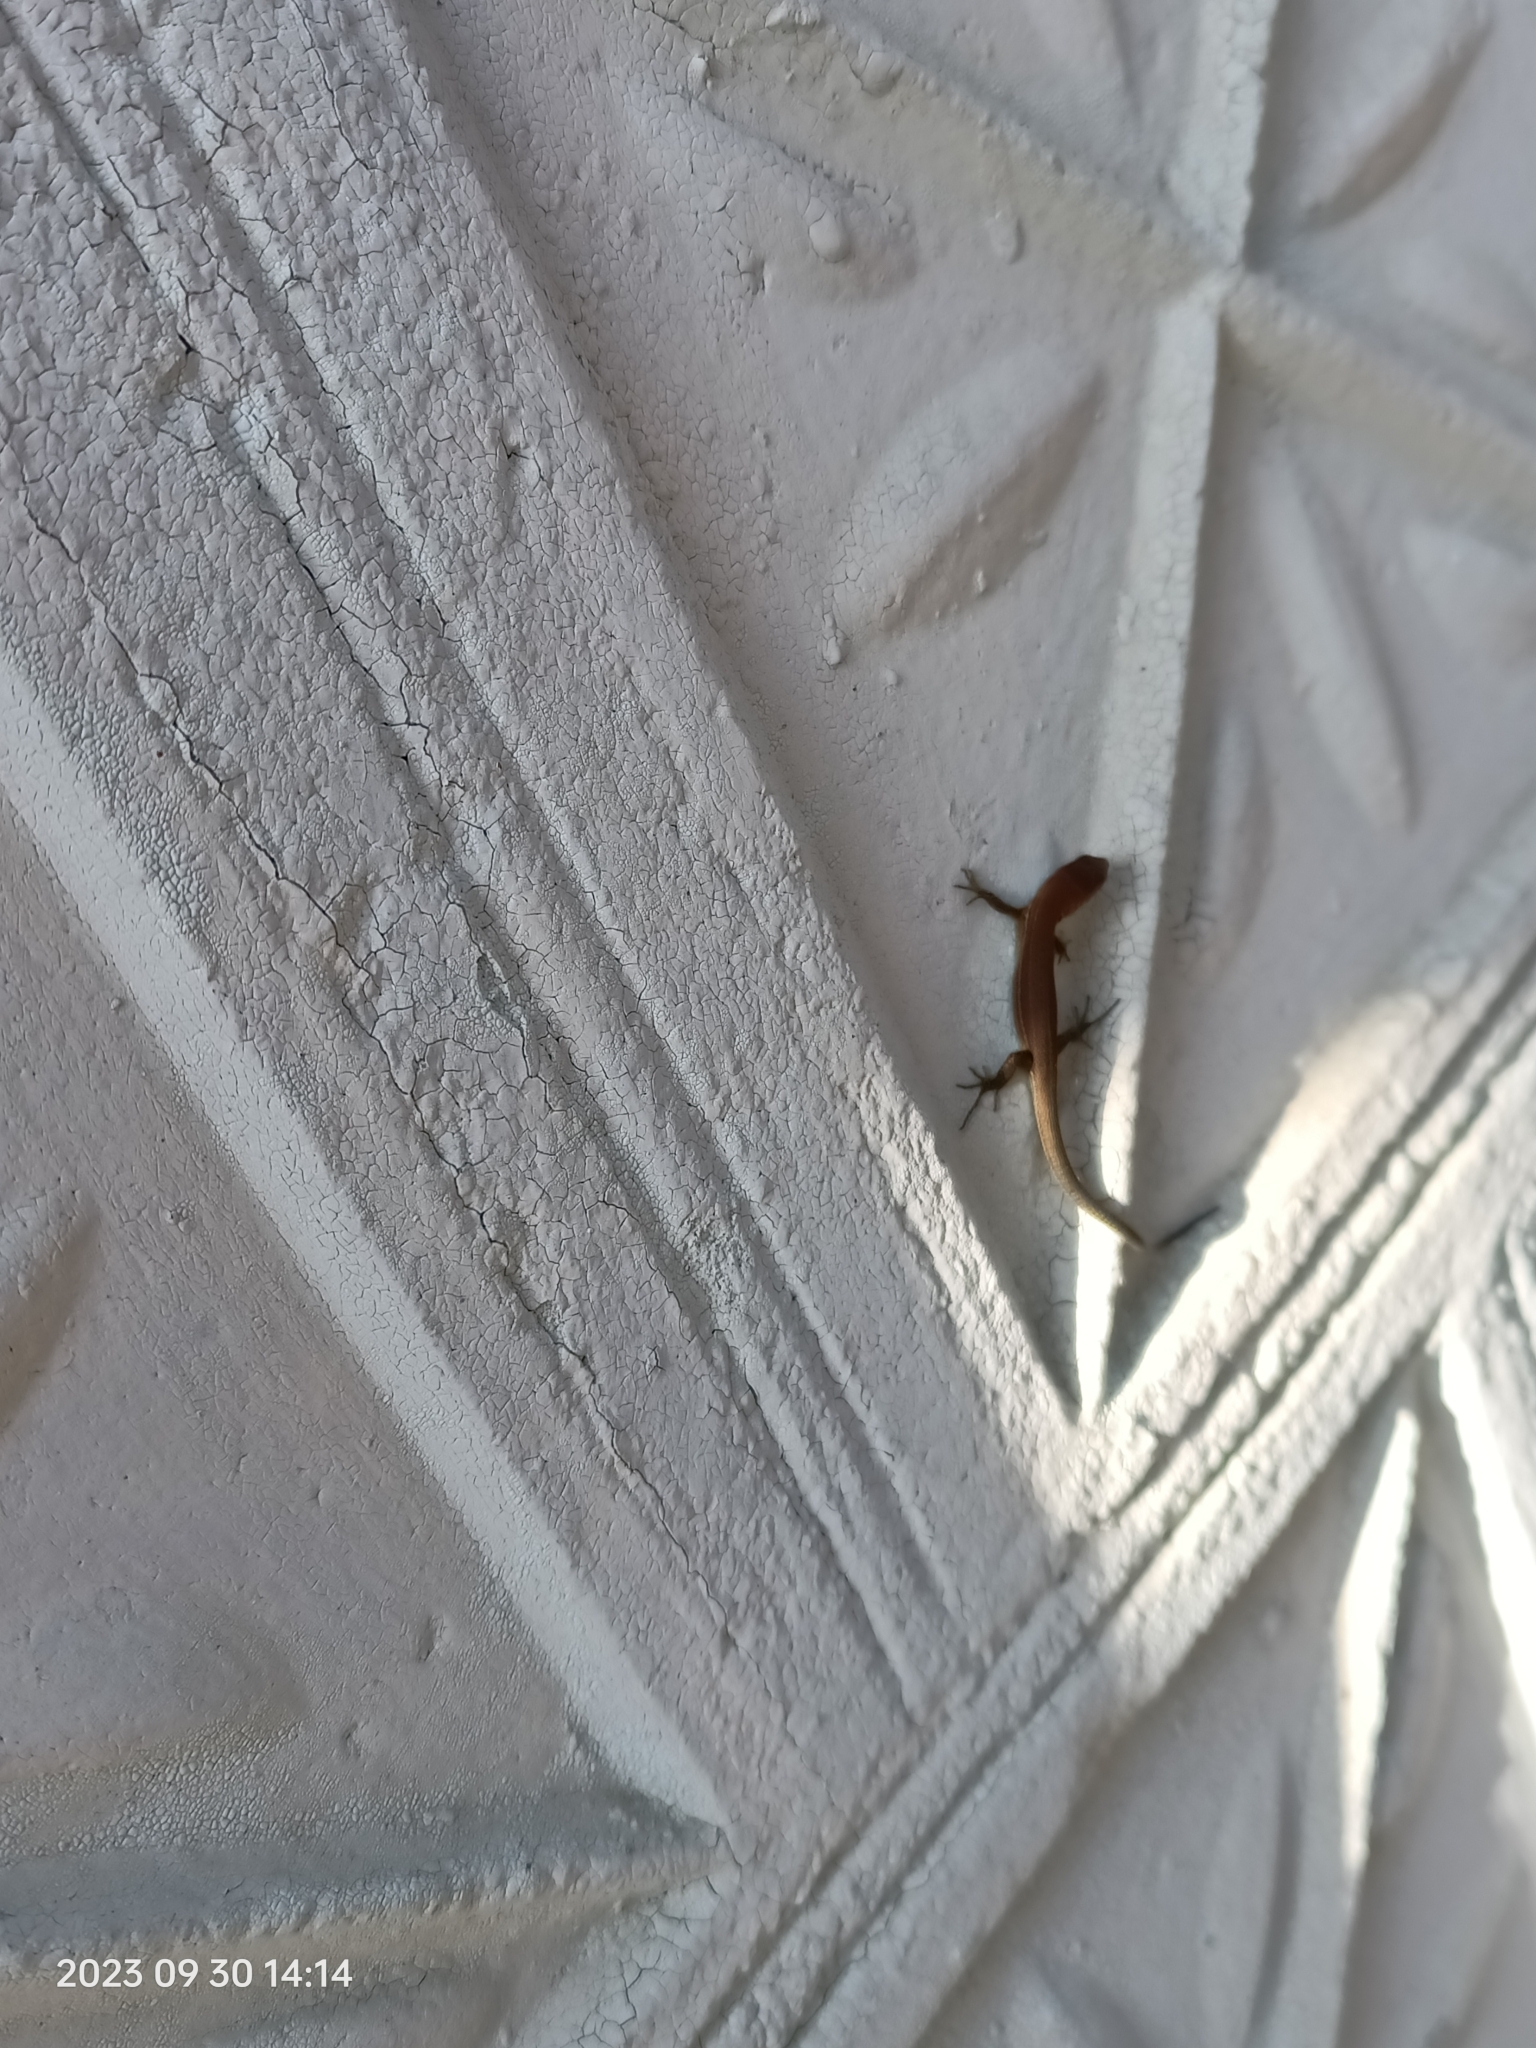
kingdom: Animalia
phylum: Chordata
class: Squamata
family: Lacertidae
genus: Darevskia
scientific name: Darevskia praticola
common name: Meadow lizard
